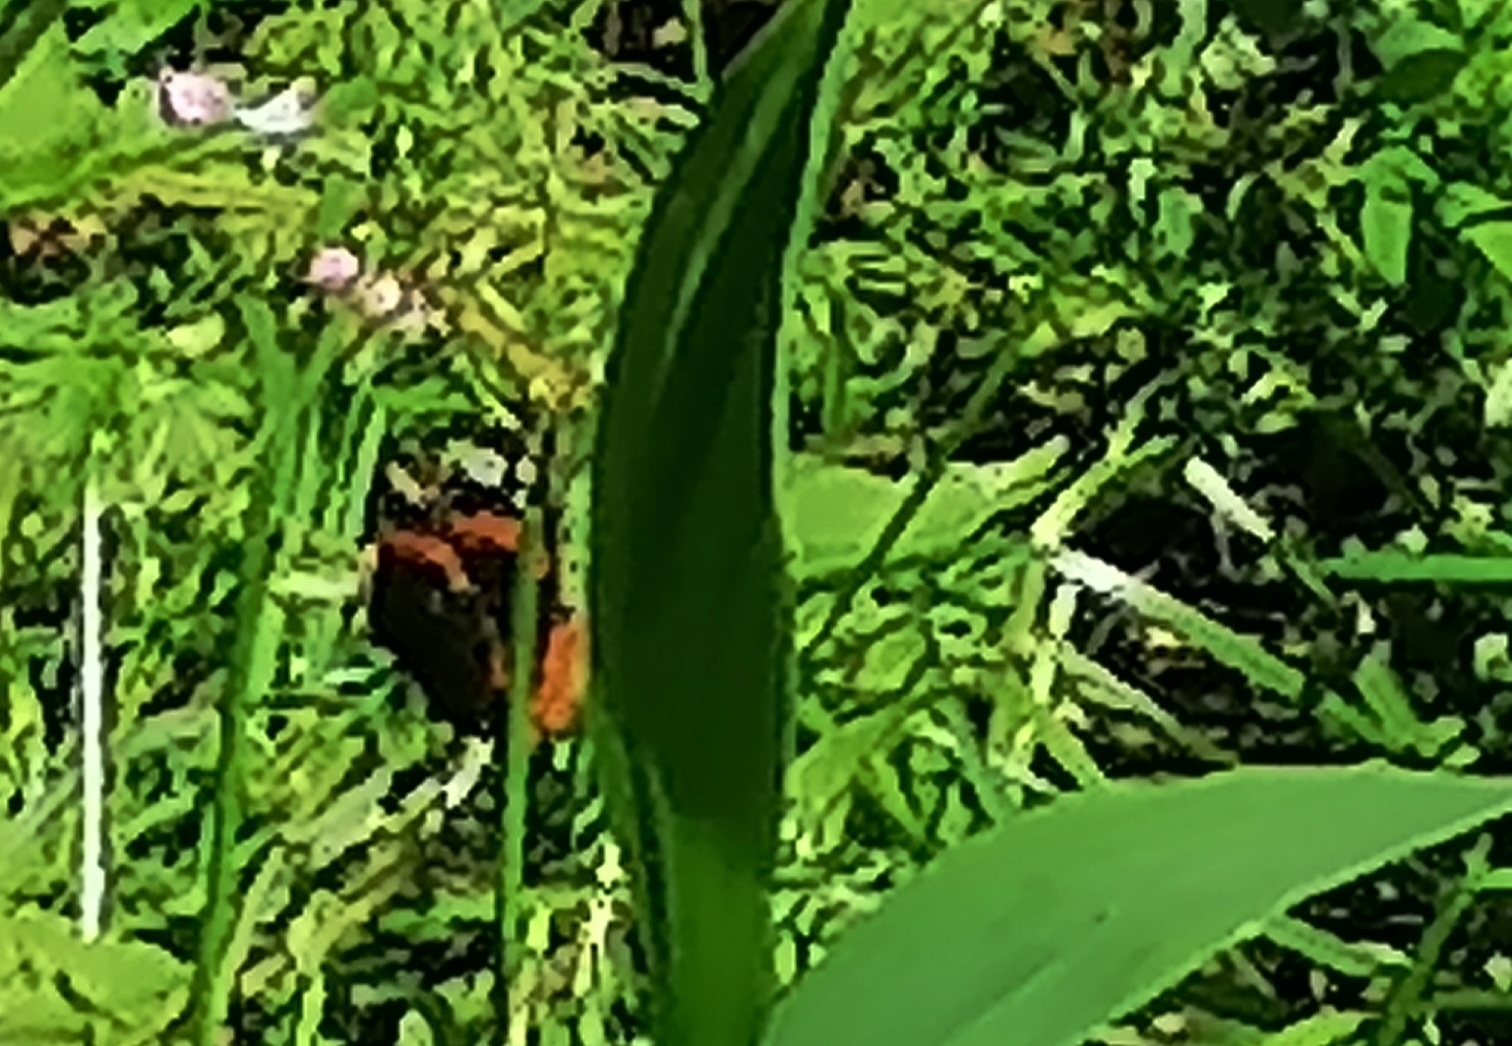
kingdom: Animalia
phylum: Arthropoda
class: Insecta
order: Lepidoptera
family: Nymphalidae
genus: Vanessa
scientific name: Vanessa atalanta
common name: Red admiral
